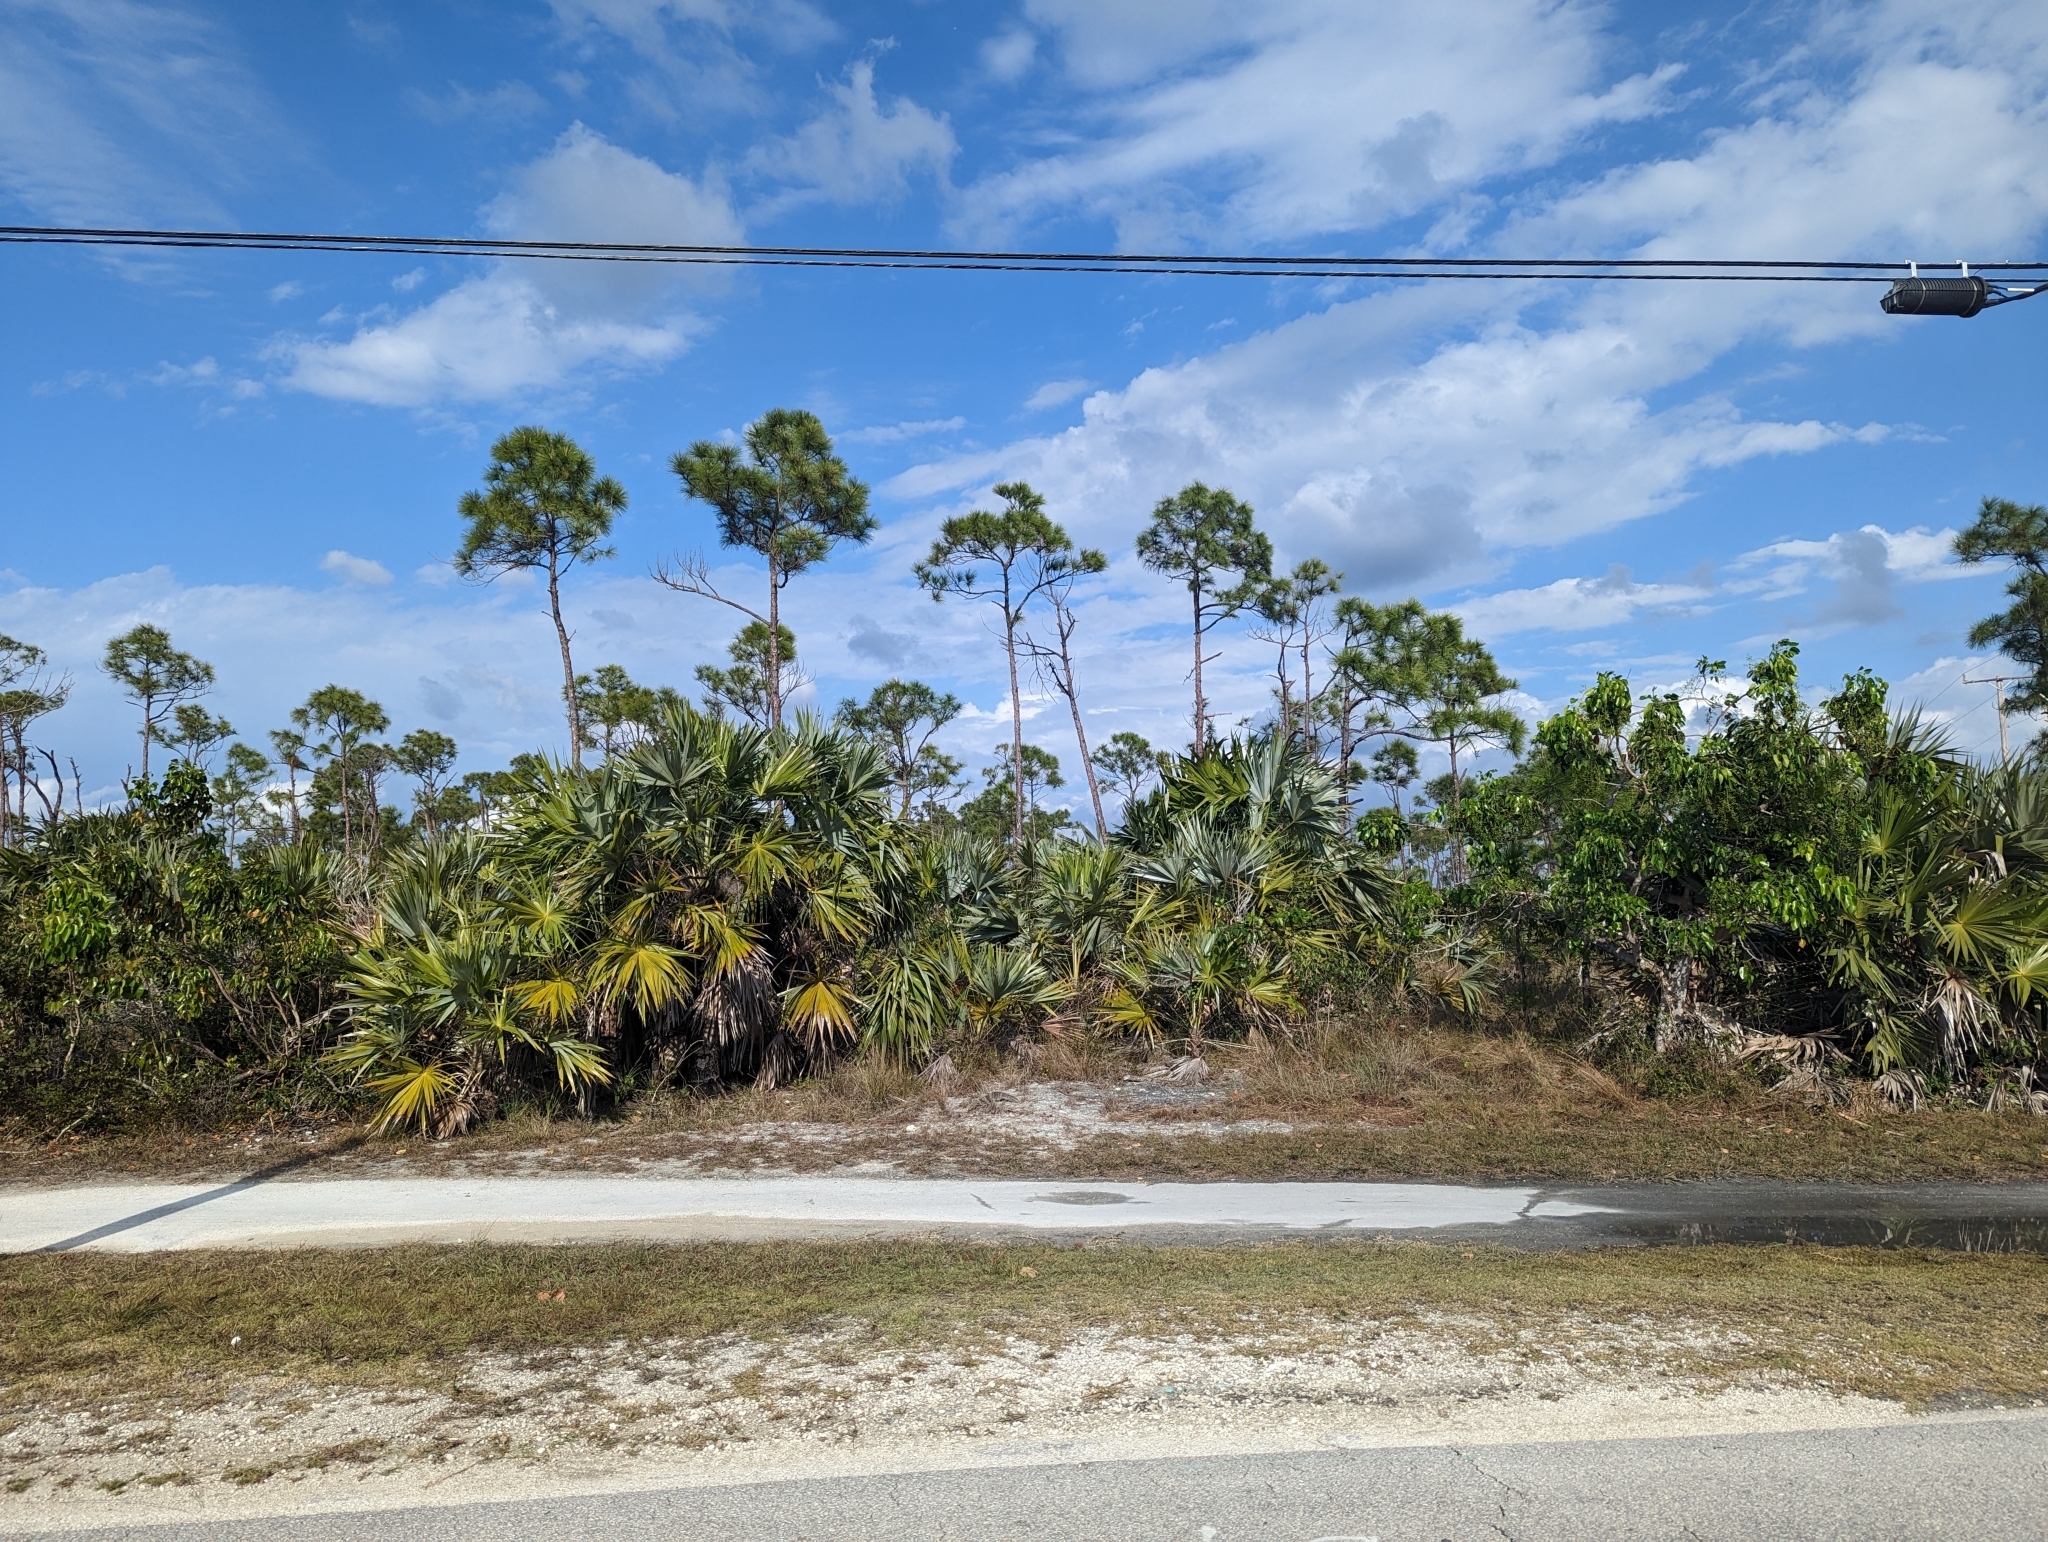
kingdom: Plantae
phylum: Tracheophyta
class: Liliopsida
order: Arecales
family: Arecaceae
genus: Sabal
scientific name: Sabal palmetto
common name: Blue palmetto
